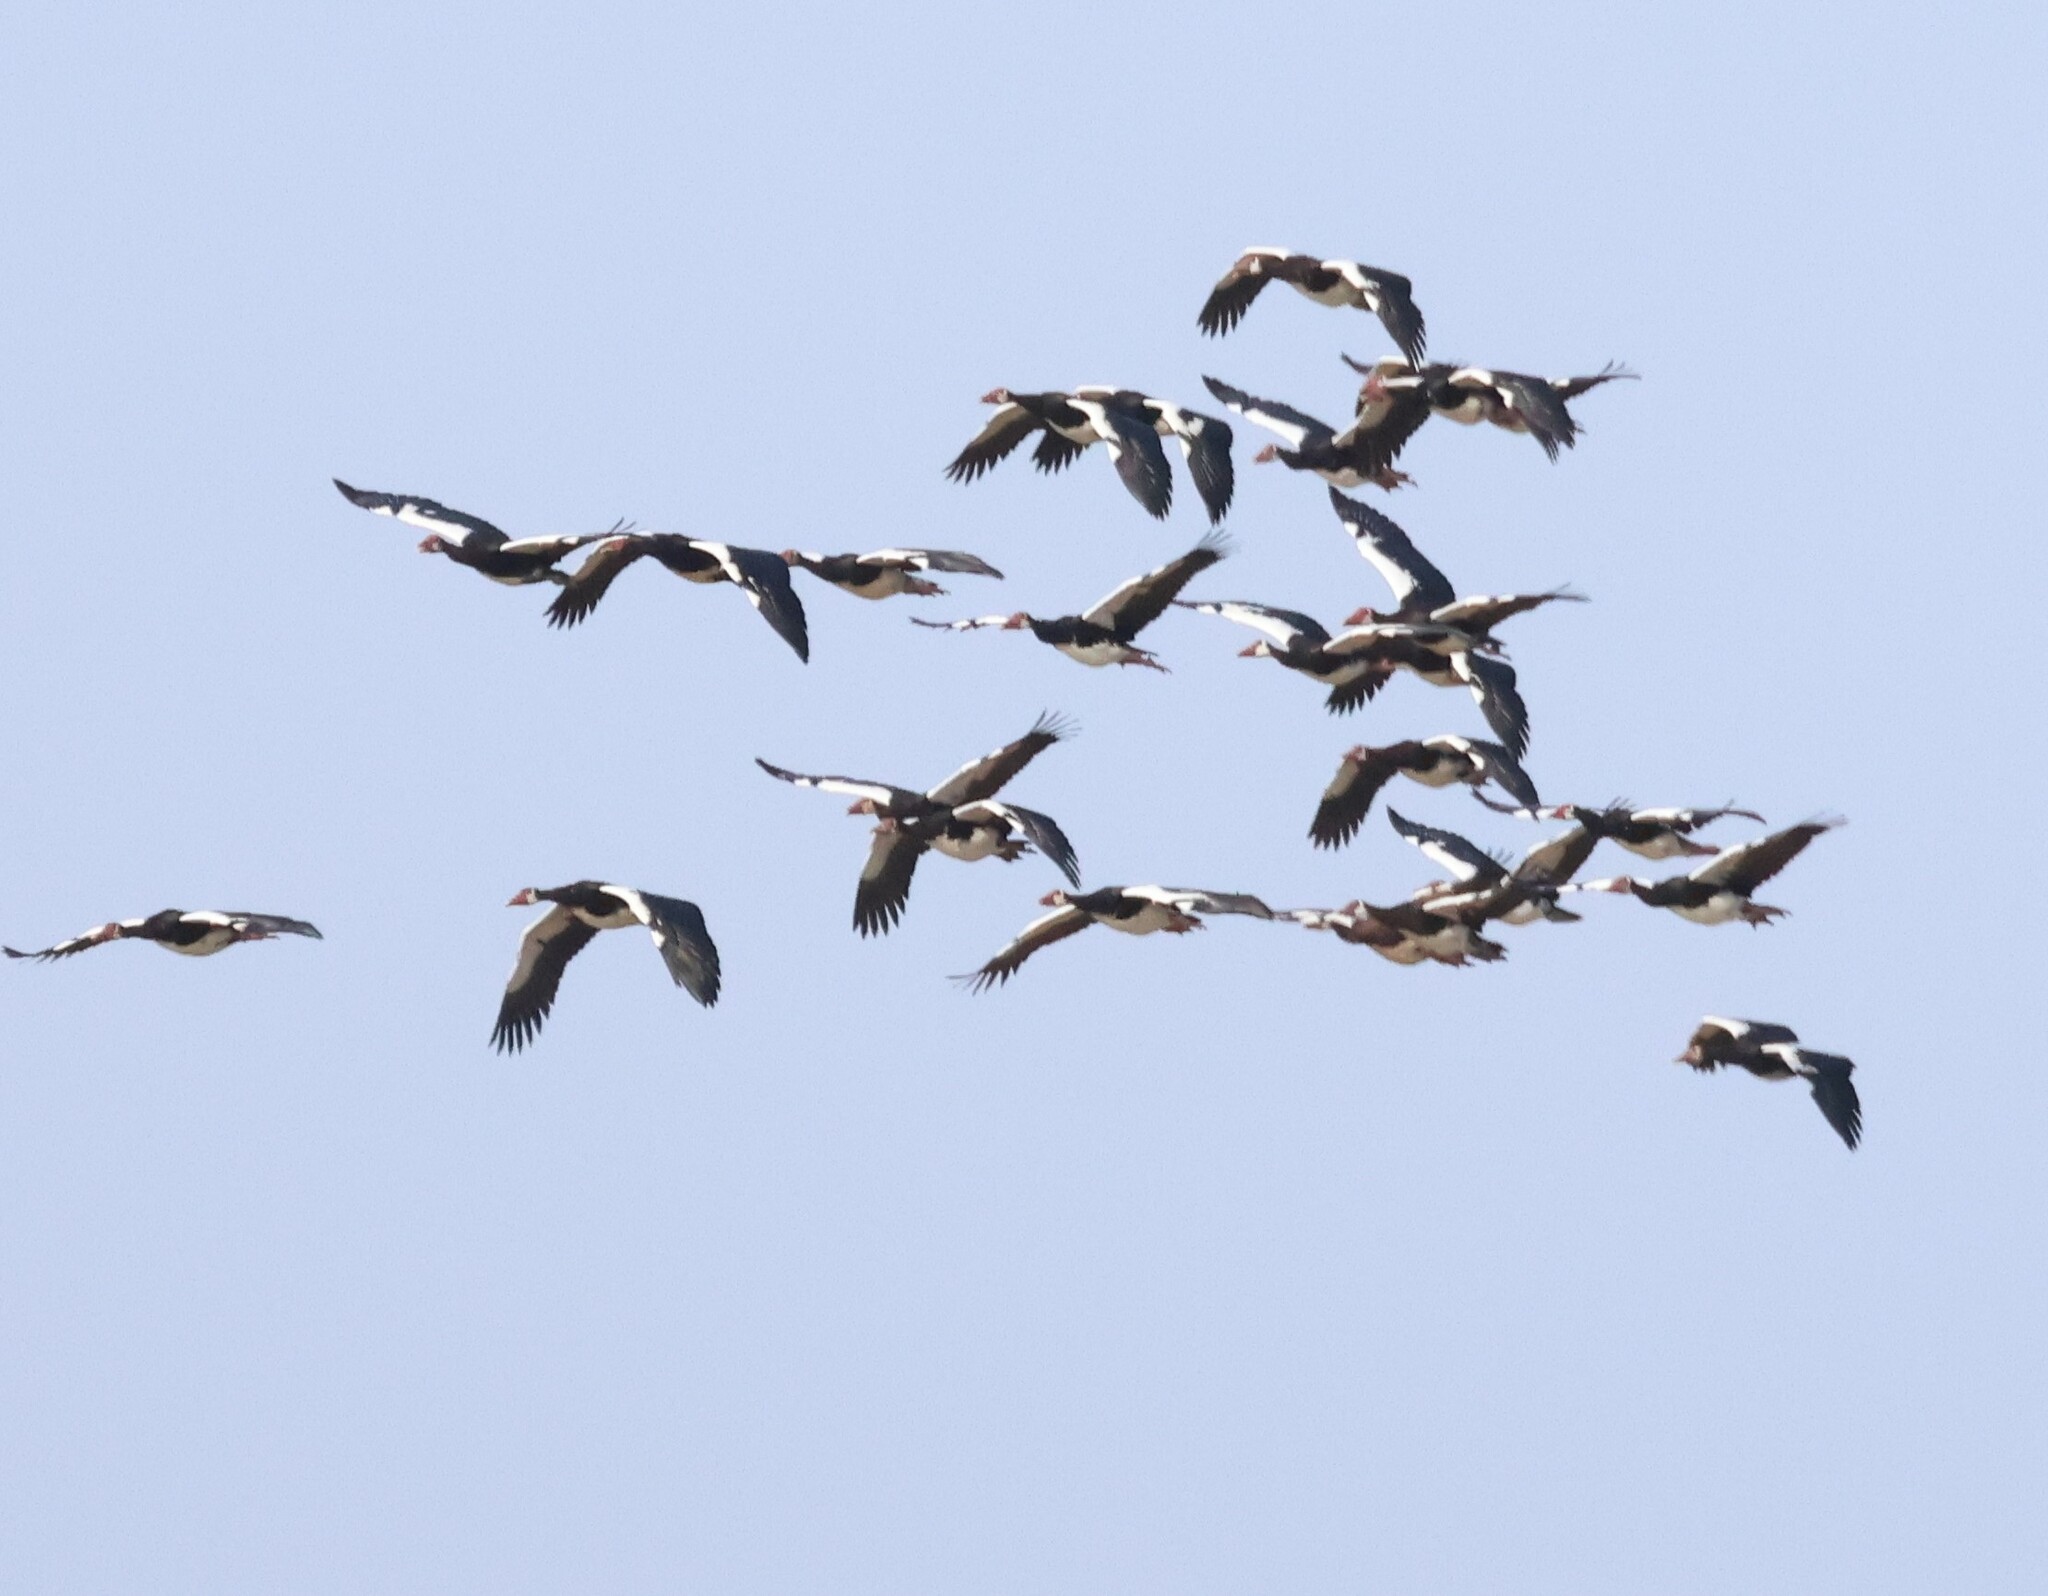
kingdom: Animalia
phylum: Chordata
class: Aves
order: Anseriformes
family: Anatidae
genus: Plectropterus
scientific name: Plectropterus gambensis
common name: Spur-winged goose
